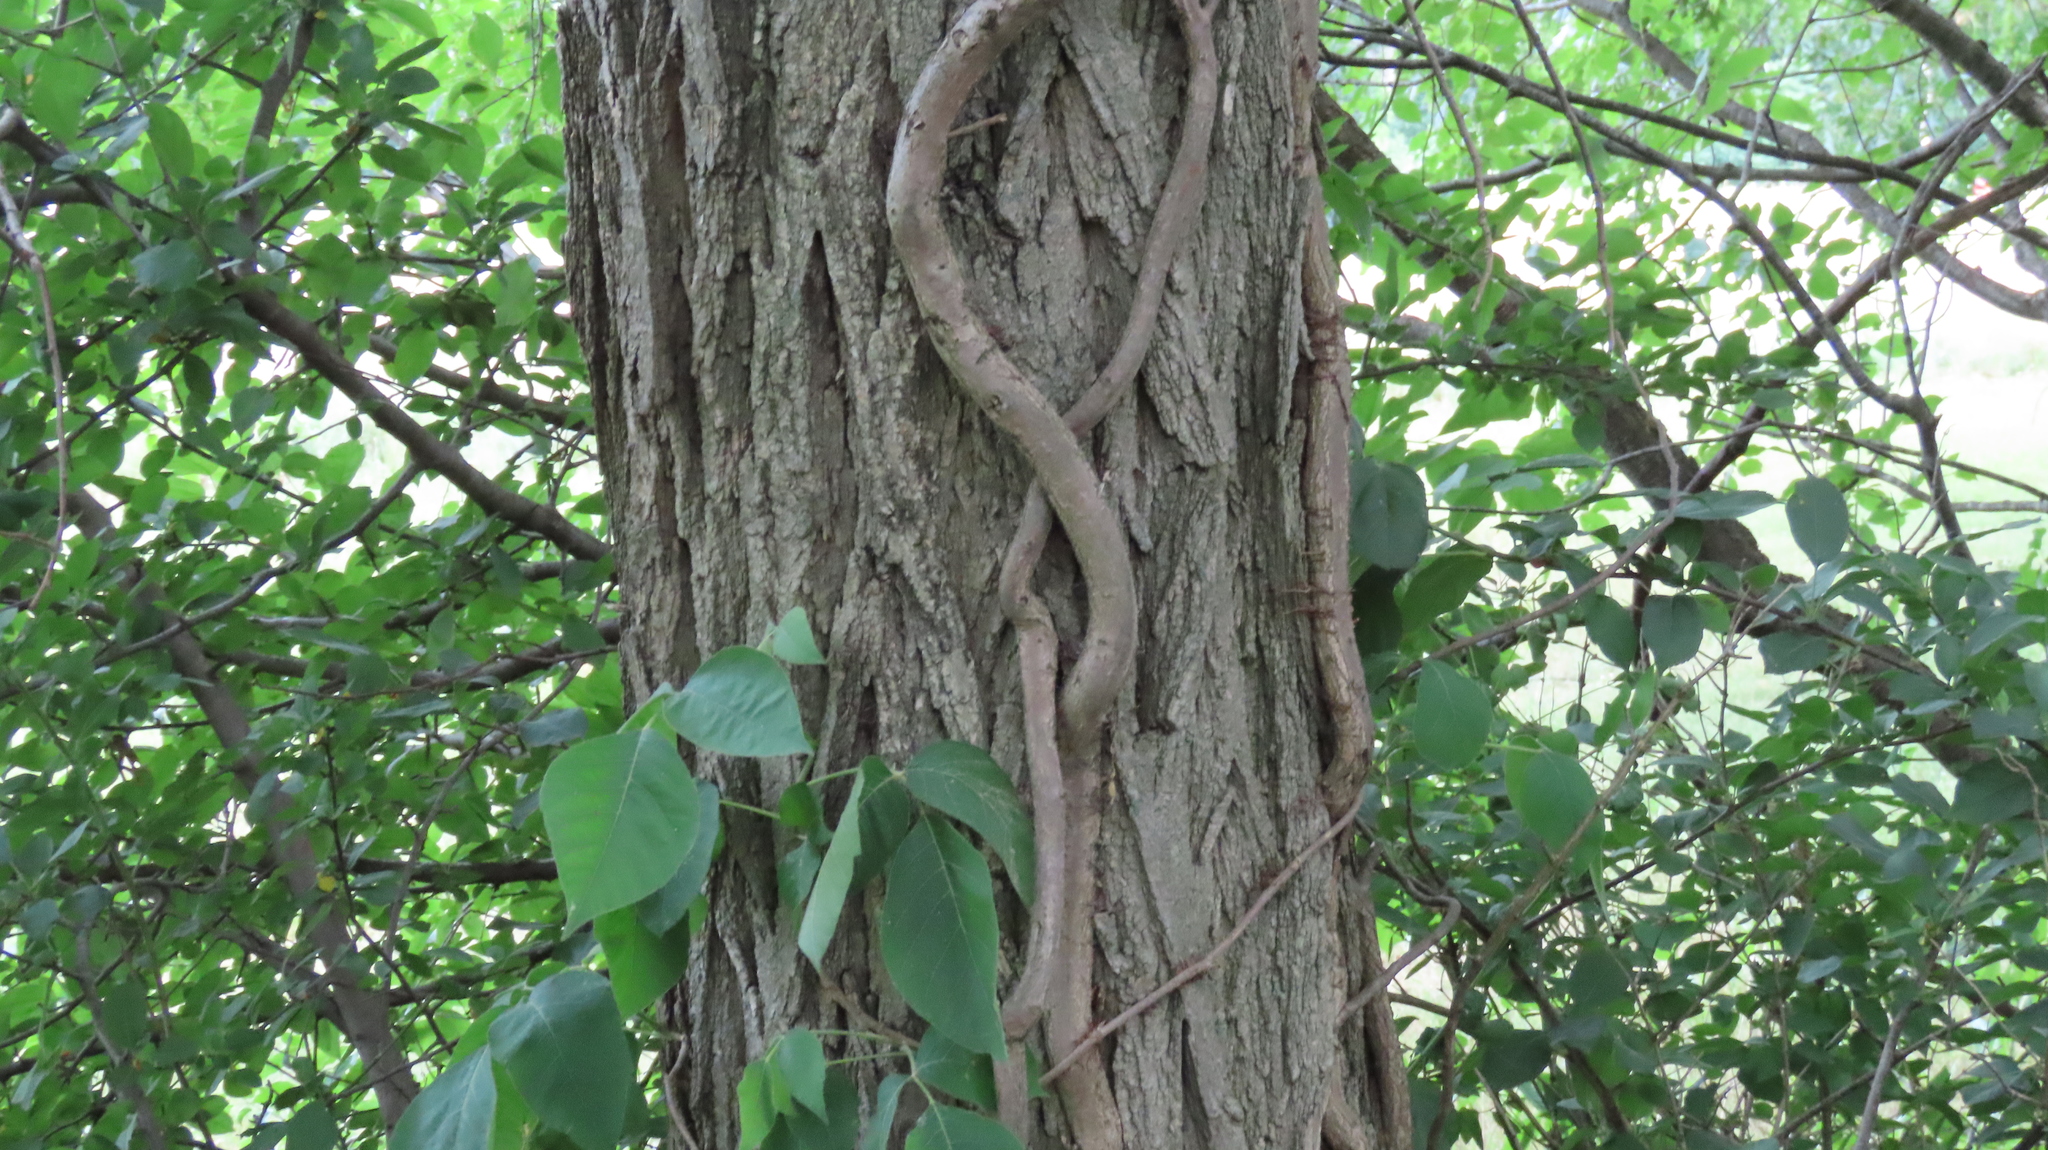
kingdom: Plantae
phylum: Tracheophyta
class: Magnoliopsida
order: Sapindales
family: Anacardiaceae
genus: Toxicodendron
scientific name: Toxicodendron radicans
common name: Poison ivy
